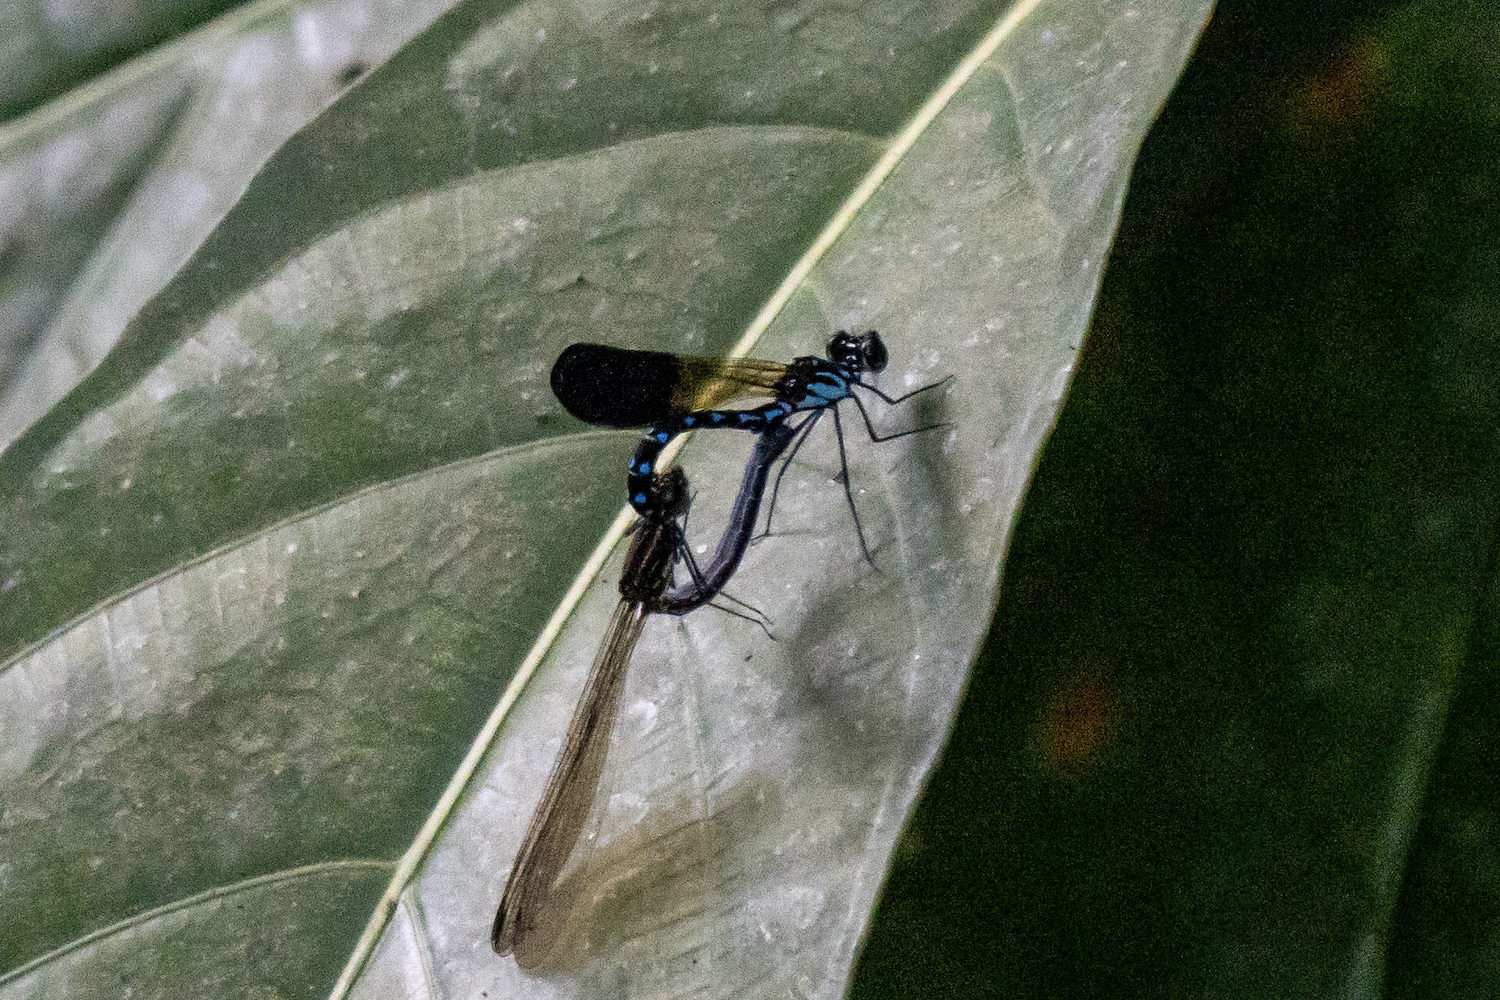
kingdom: Animalia
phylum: Arthropoda
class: Insecta
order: Odonata
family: Chlorocyphidae
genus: Heliocypha
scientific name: Heliocypha perforata
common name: Common blue jewel
